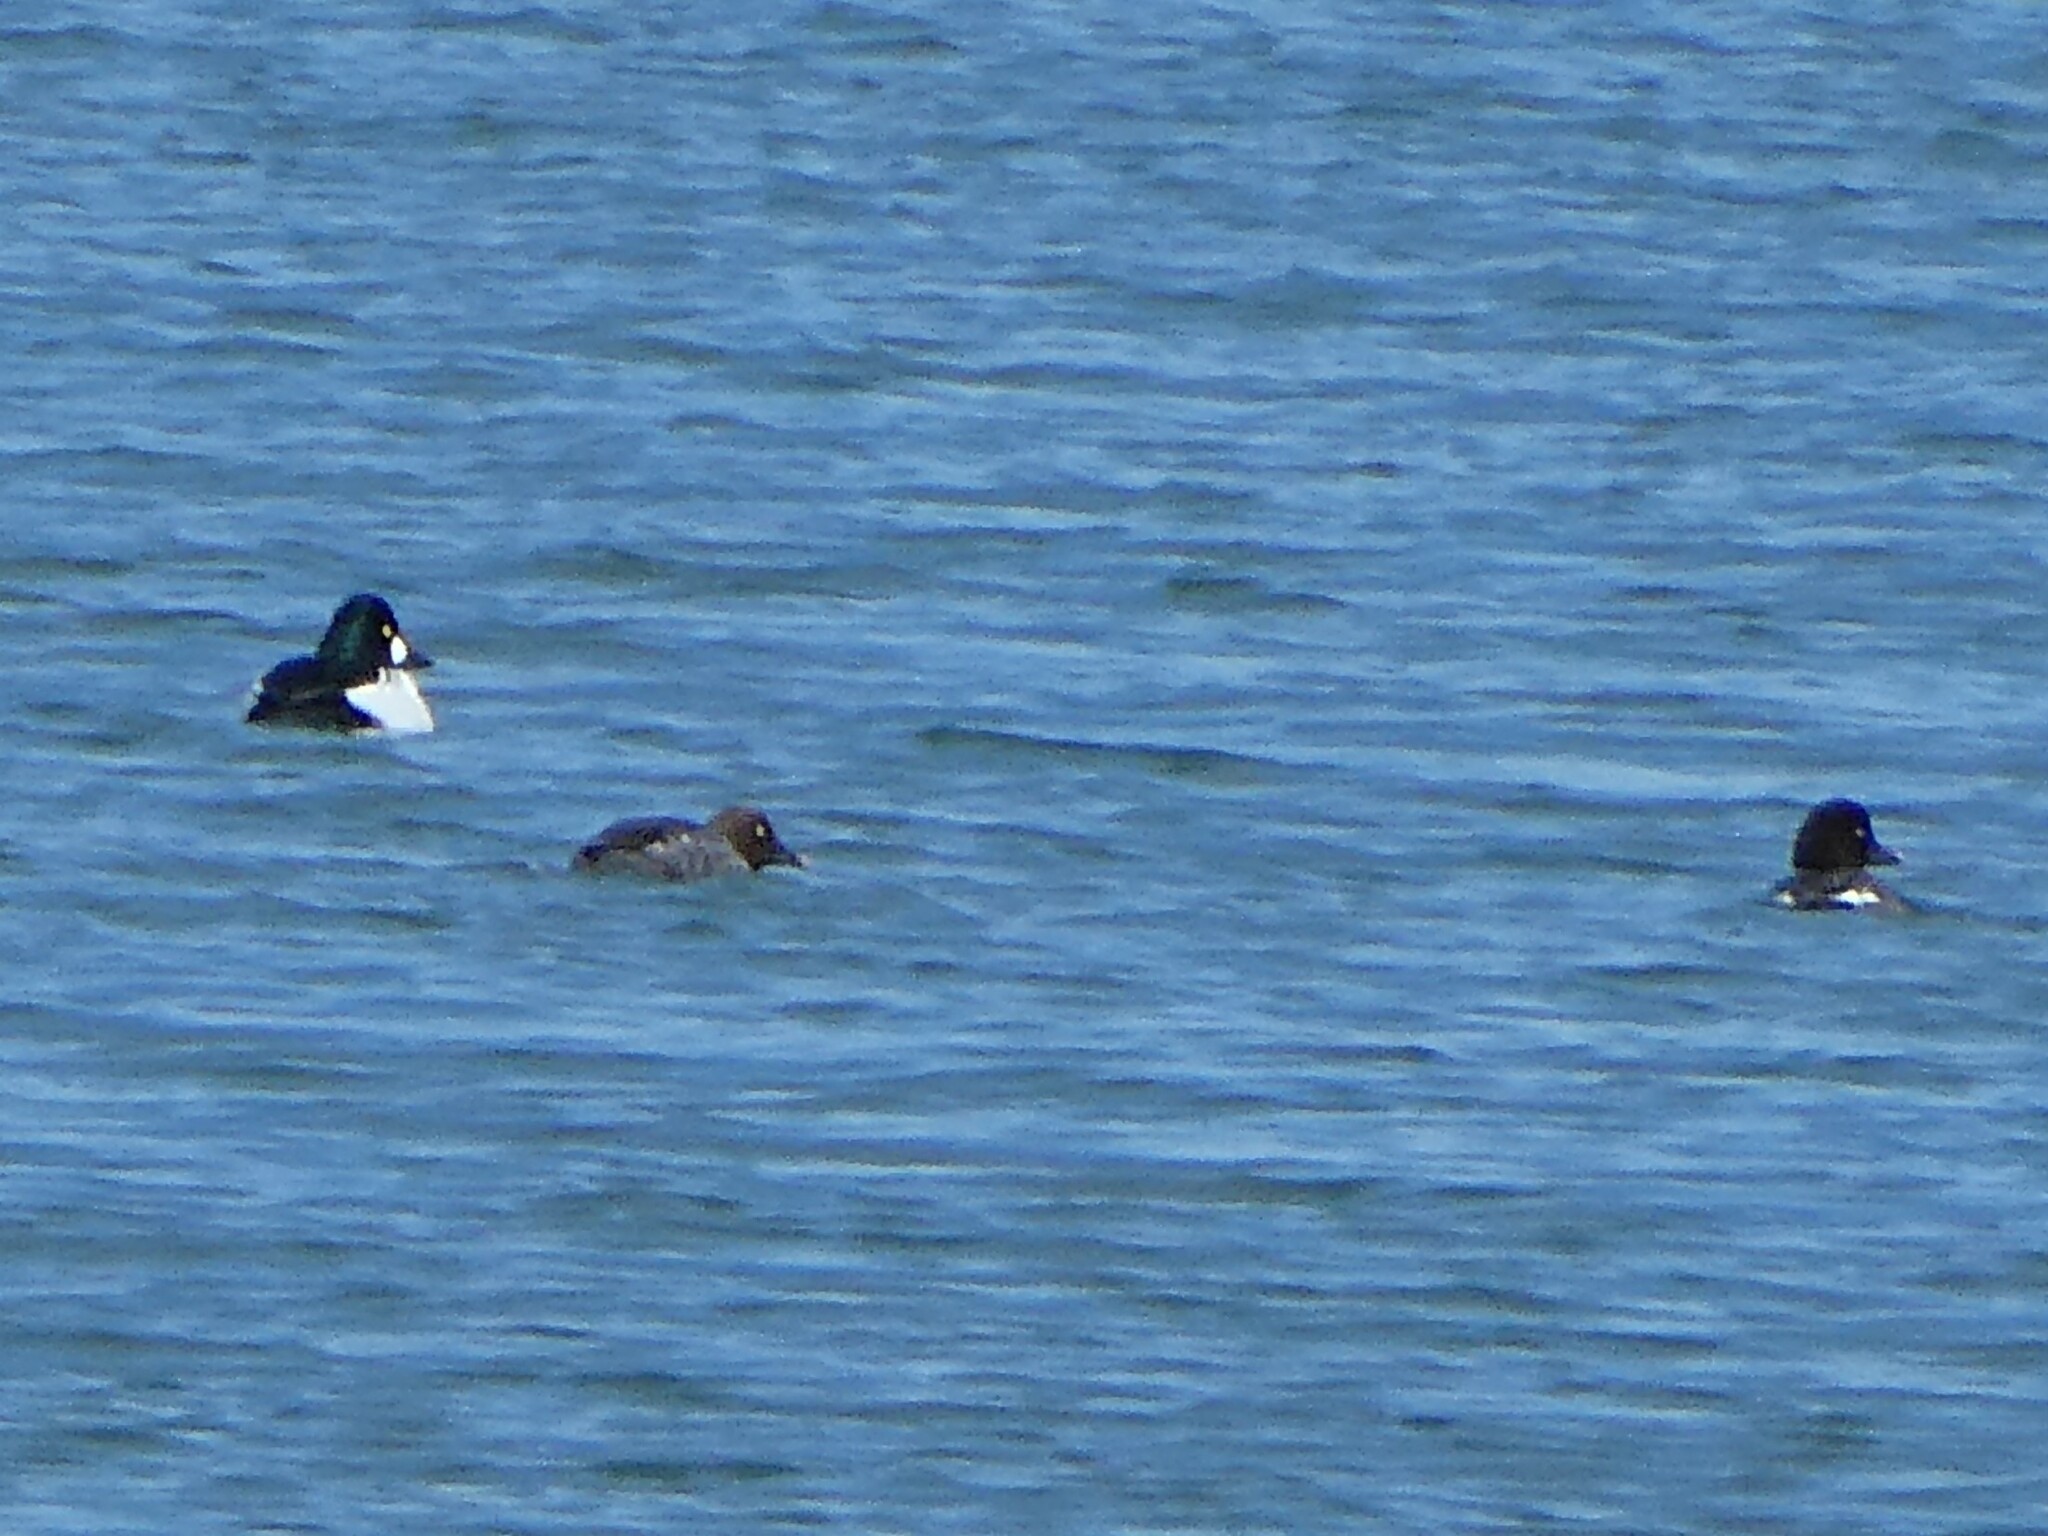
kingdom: Animalia
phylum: Chordata
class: Aves
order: Anseriformes
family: Anatidae
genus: Bucephala
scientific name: Bucephala clangula
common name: Common goldeneye
